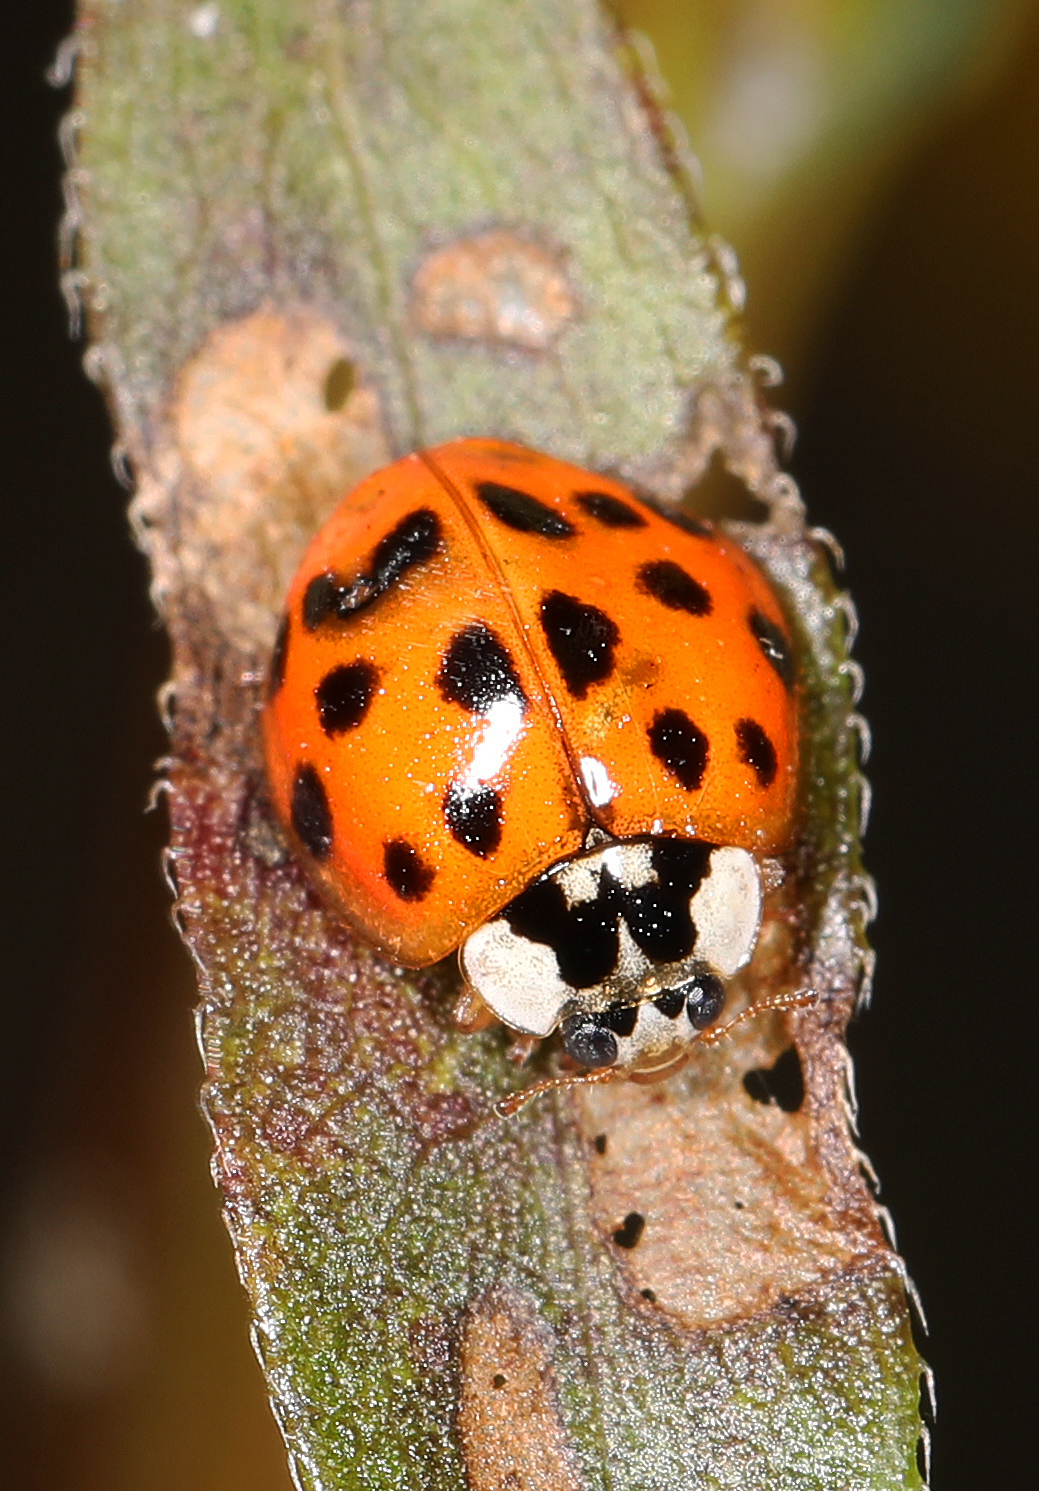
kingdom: Animalia
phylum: Arthropoda
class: Insecta
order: Coleoptera
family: Coccinellidae
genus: Harmonia
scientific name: Harmonia axyridis
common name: Harlequin ladybird
